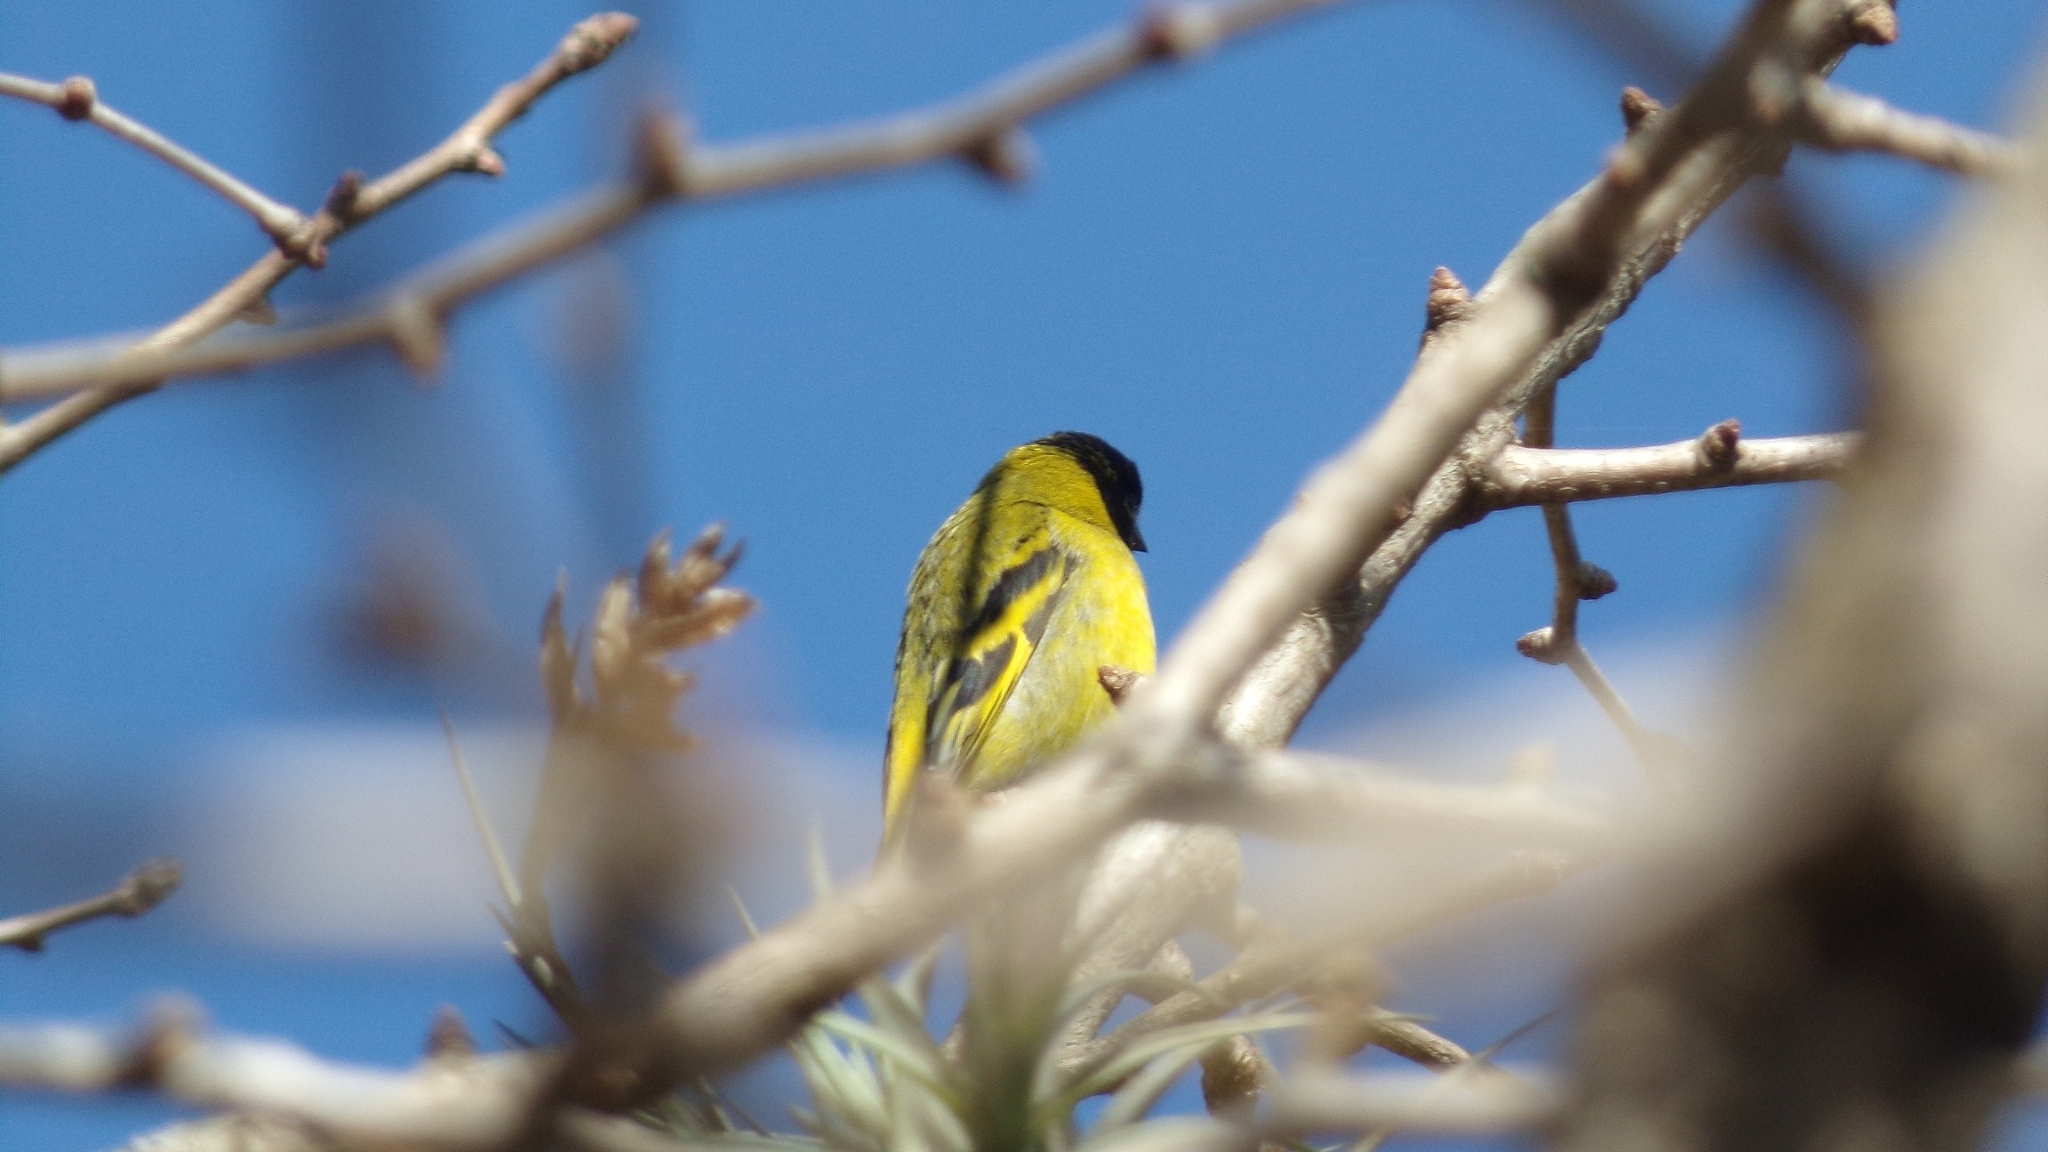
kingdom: Animalia
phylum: Chordata
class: Aves
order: Passeriformes
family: Fringillidae
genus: Spinus
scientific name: Spinus magellanicus
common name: Hooded siskin
